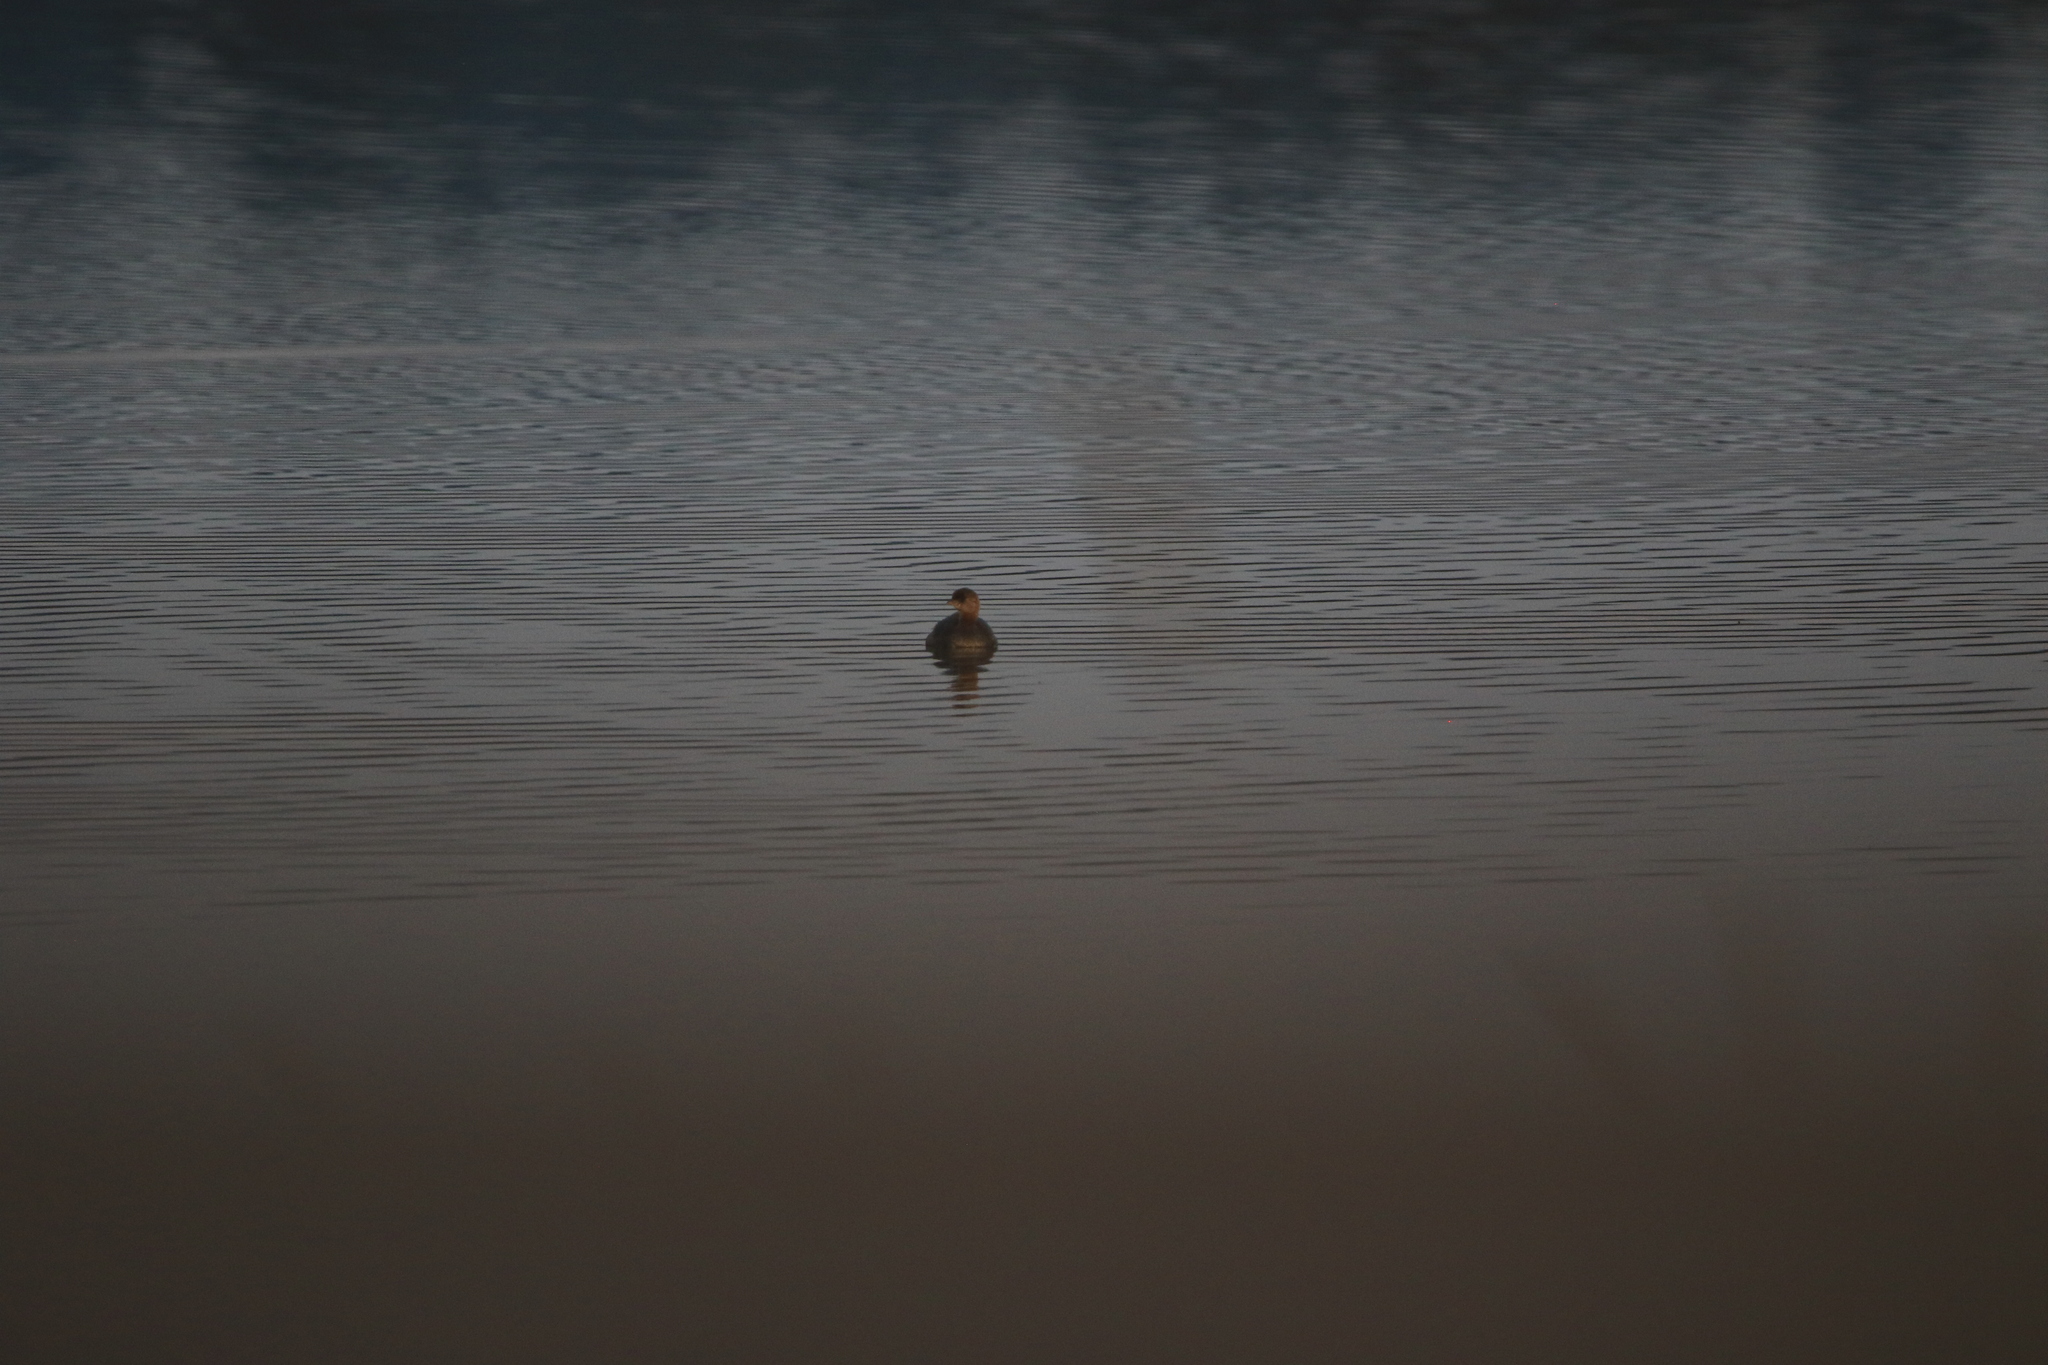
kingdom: Animalia
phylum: Chordata
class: Aves
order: Podicipediformes
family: Podicipedidae
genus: Podilymbus
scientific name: Podilymbus podiceps
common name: Pied-billed grebe
